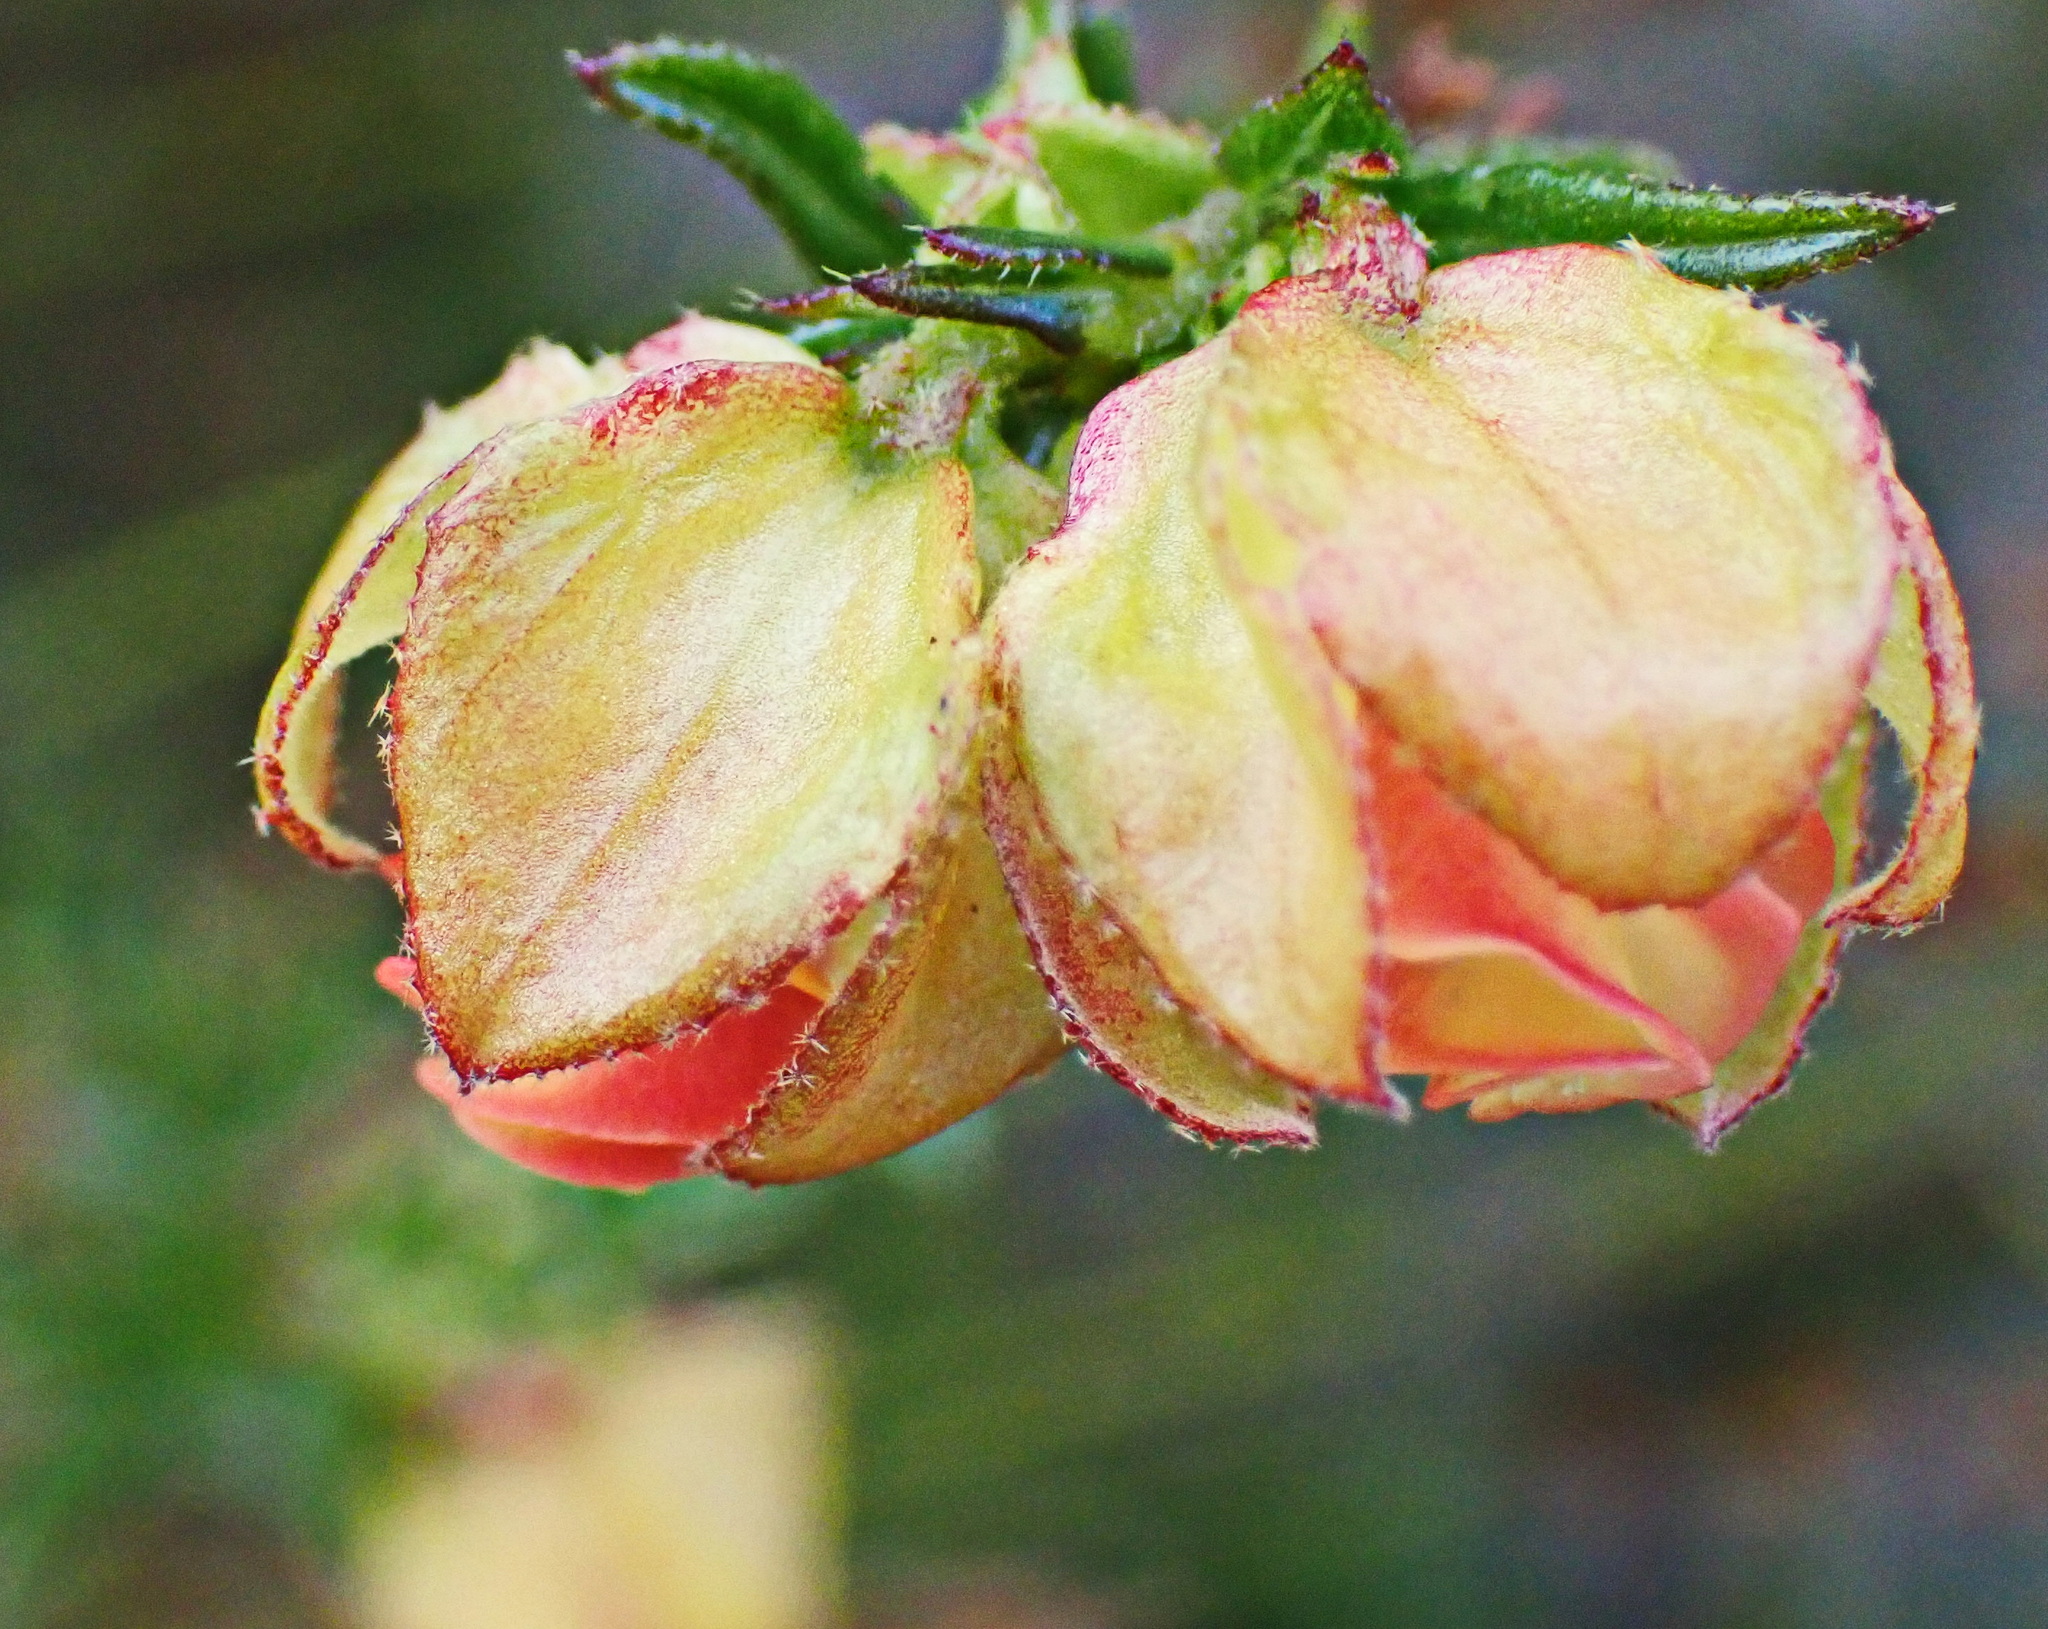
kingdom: Plantae
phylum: Tracheophyta
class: Magnoliopsida
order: Malvales
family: Malvaceae
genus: Hermannia
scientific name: Hermannia angularis
